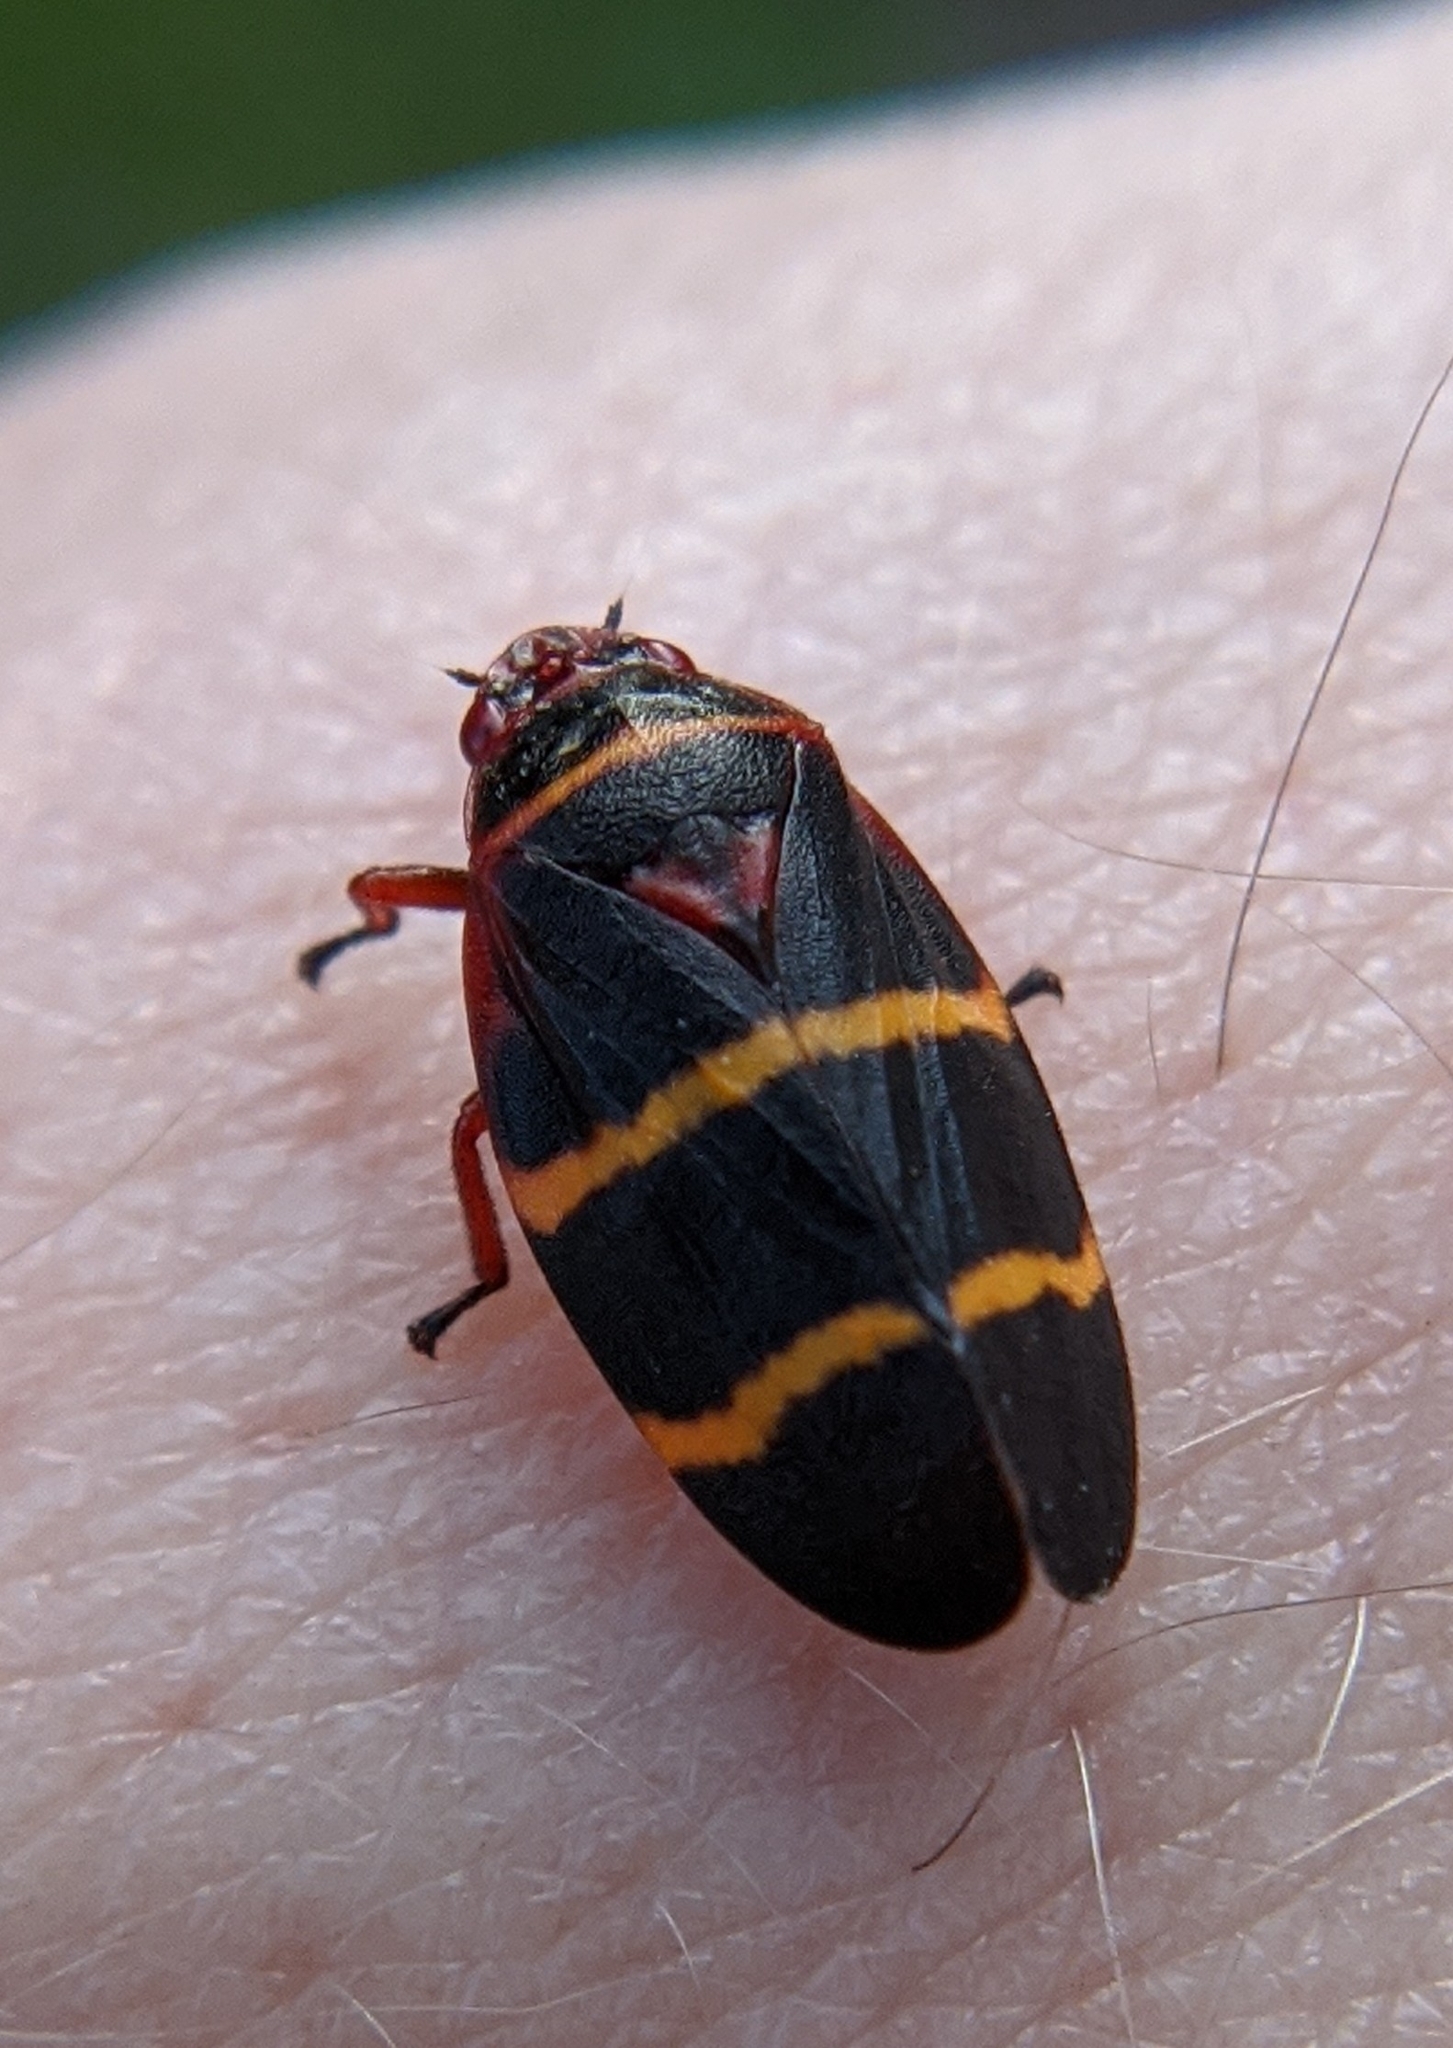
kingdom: Animalia
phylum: Arthropoda
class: Insecta
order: Hemiptera
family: Cercopidae
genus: Prosapia
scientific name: Prosapia bicincta
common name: Twolined spittlebug
